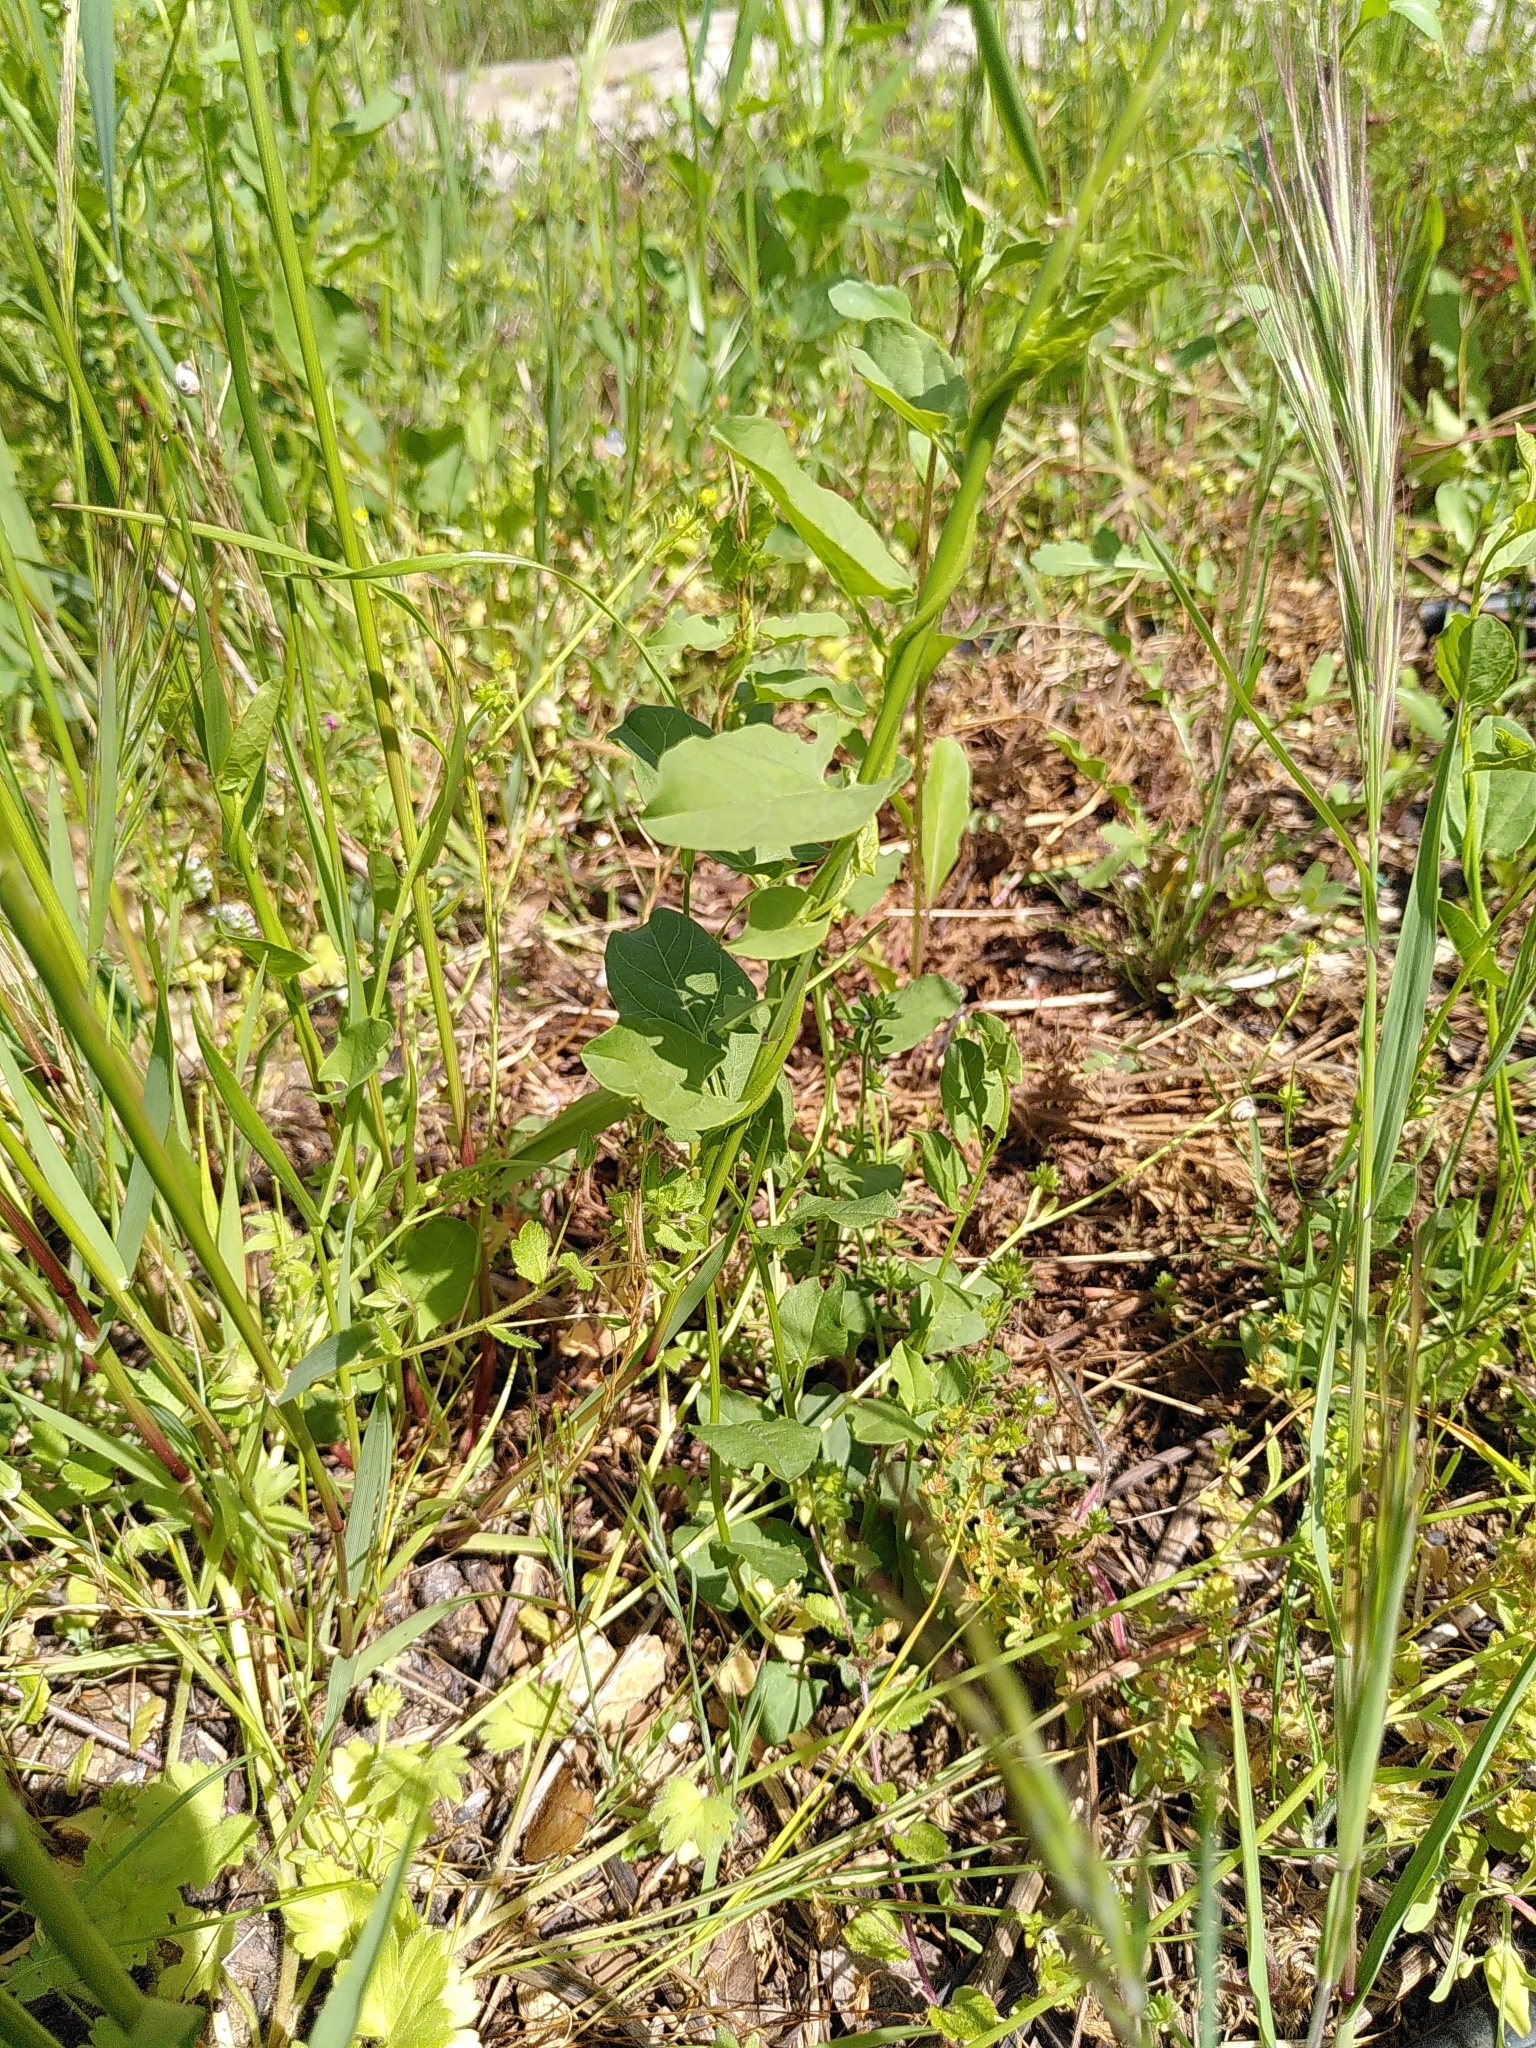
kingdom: Plantae
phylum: Tracheophyta
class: Magnoliopsida
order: Solanales
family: Convolvulaceae
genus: Convolvulus
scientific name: Convolvulus arvensis
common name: Field bindweed
